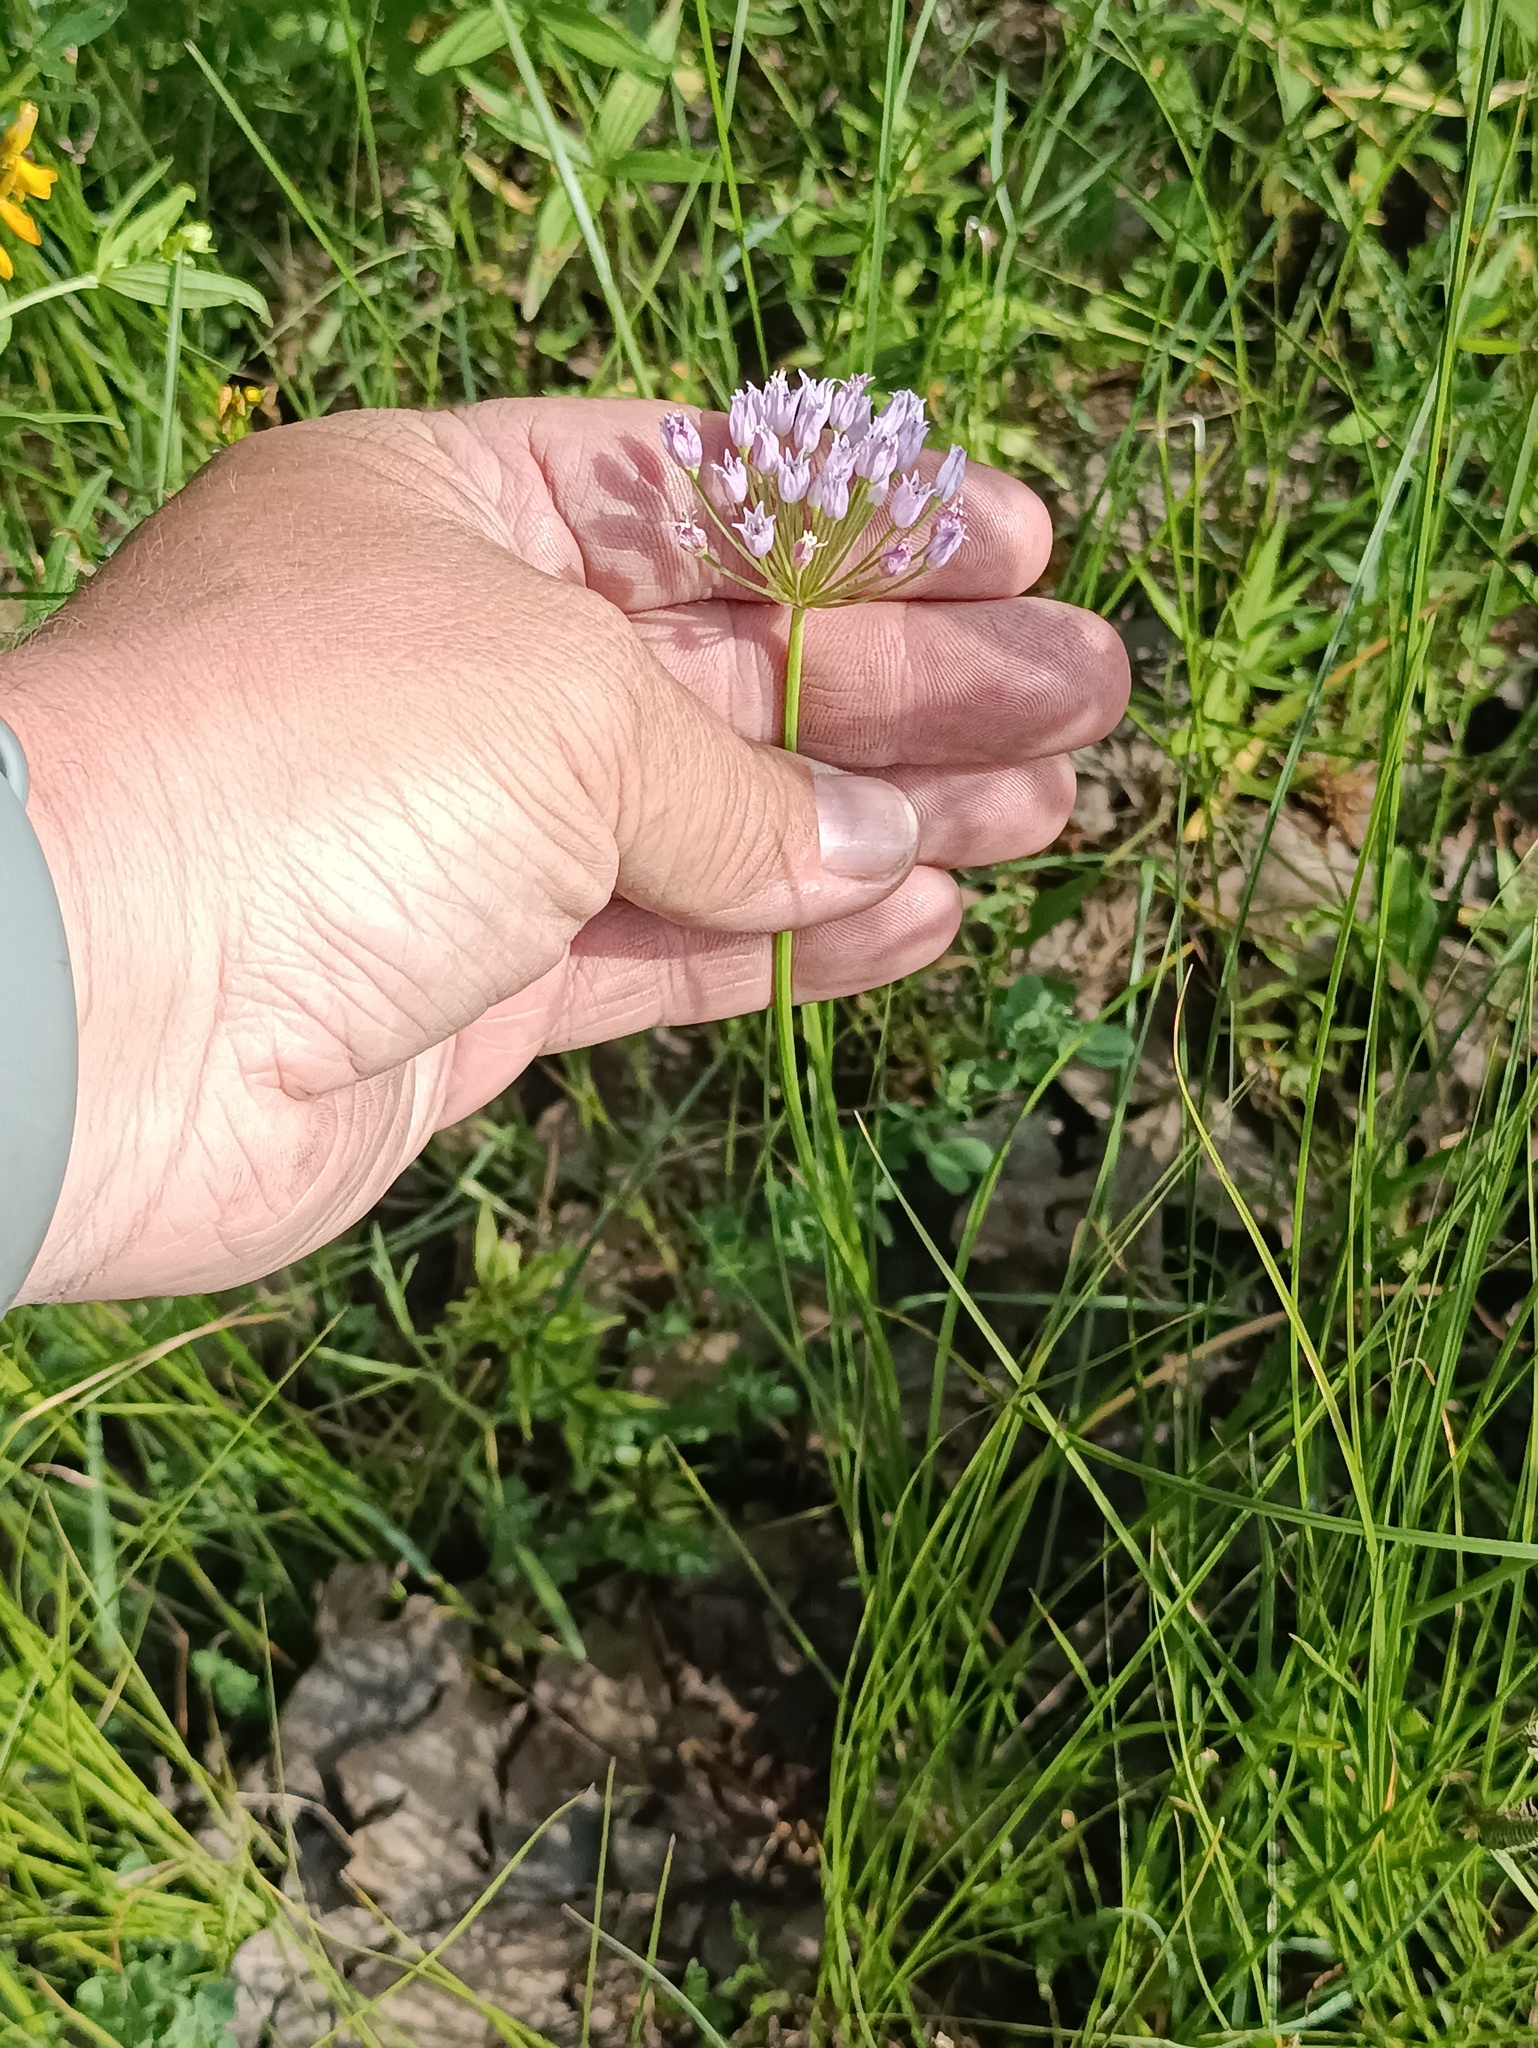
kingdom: Plantae
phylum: Tracheophyta
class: Liliopsida
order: Asparagales
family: Amaryllidaceae
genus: Allium
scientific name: Allium angulosum
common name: Mouse garlic
